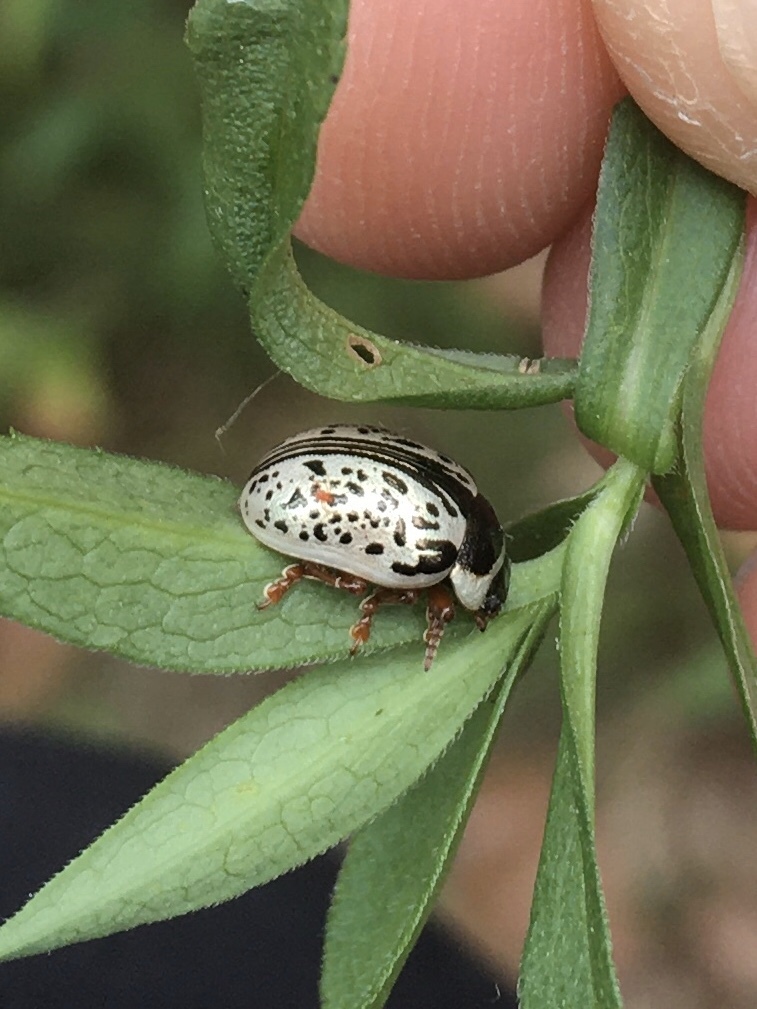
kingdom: Animalia
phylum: Arthropoda
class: Insecta
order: Coleoptera
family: Chrysomelidae
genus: Calligrapha
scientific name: Calligrapha multipunctata
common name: Common willow calligrapher beetle
